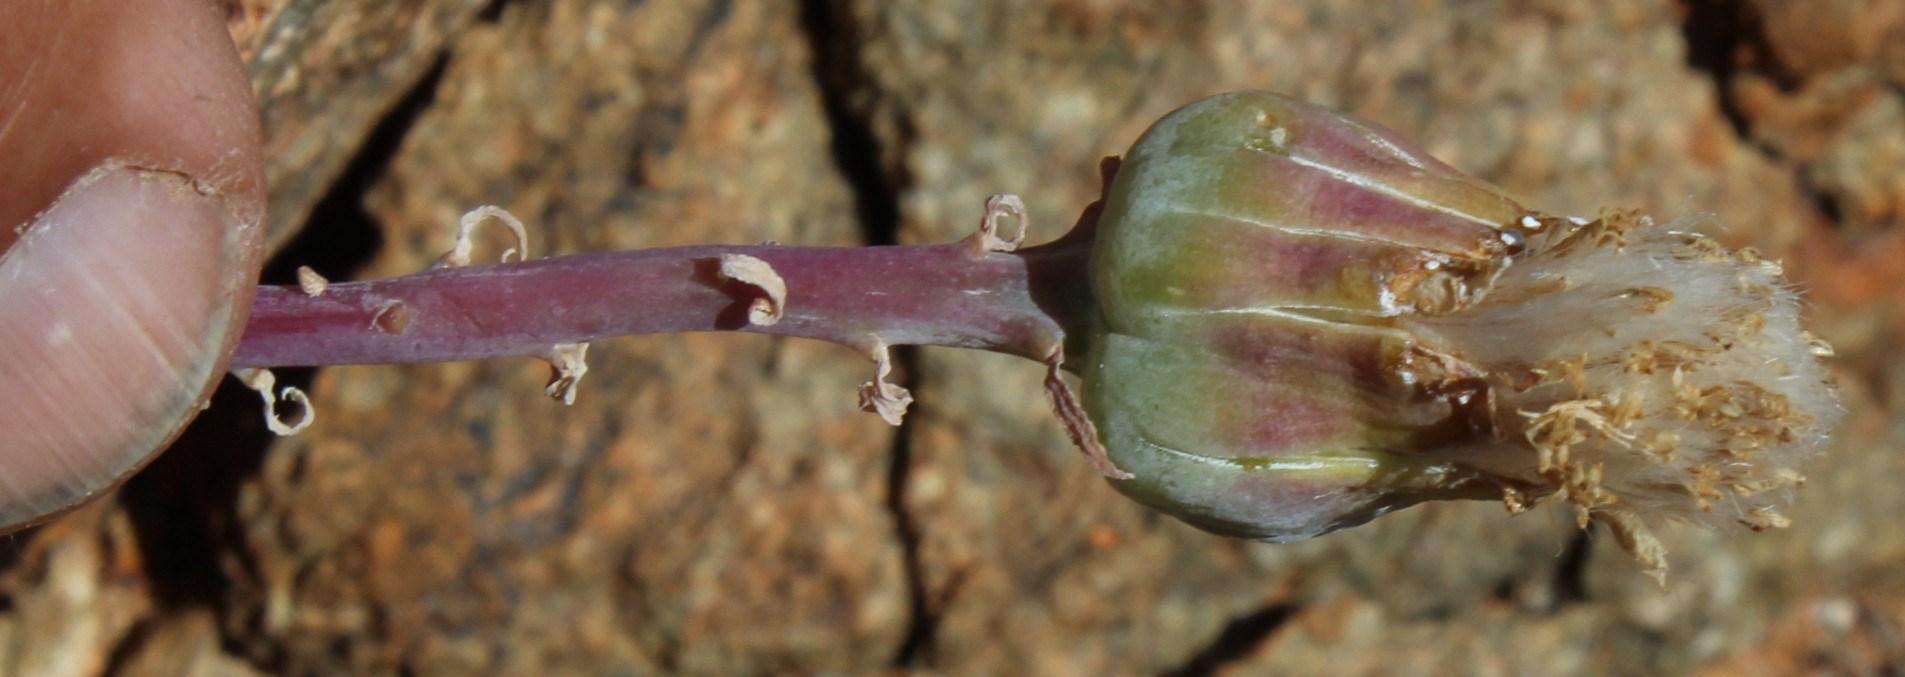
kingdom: Plantae
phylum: Tracheophyta
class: Magnoliopsida
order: Asterales
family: Asteraceae
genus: Kleinia
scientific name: Kleinia cephalophora
